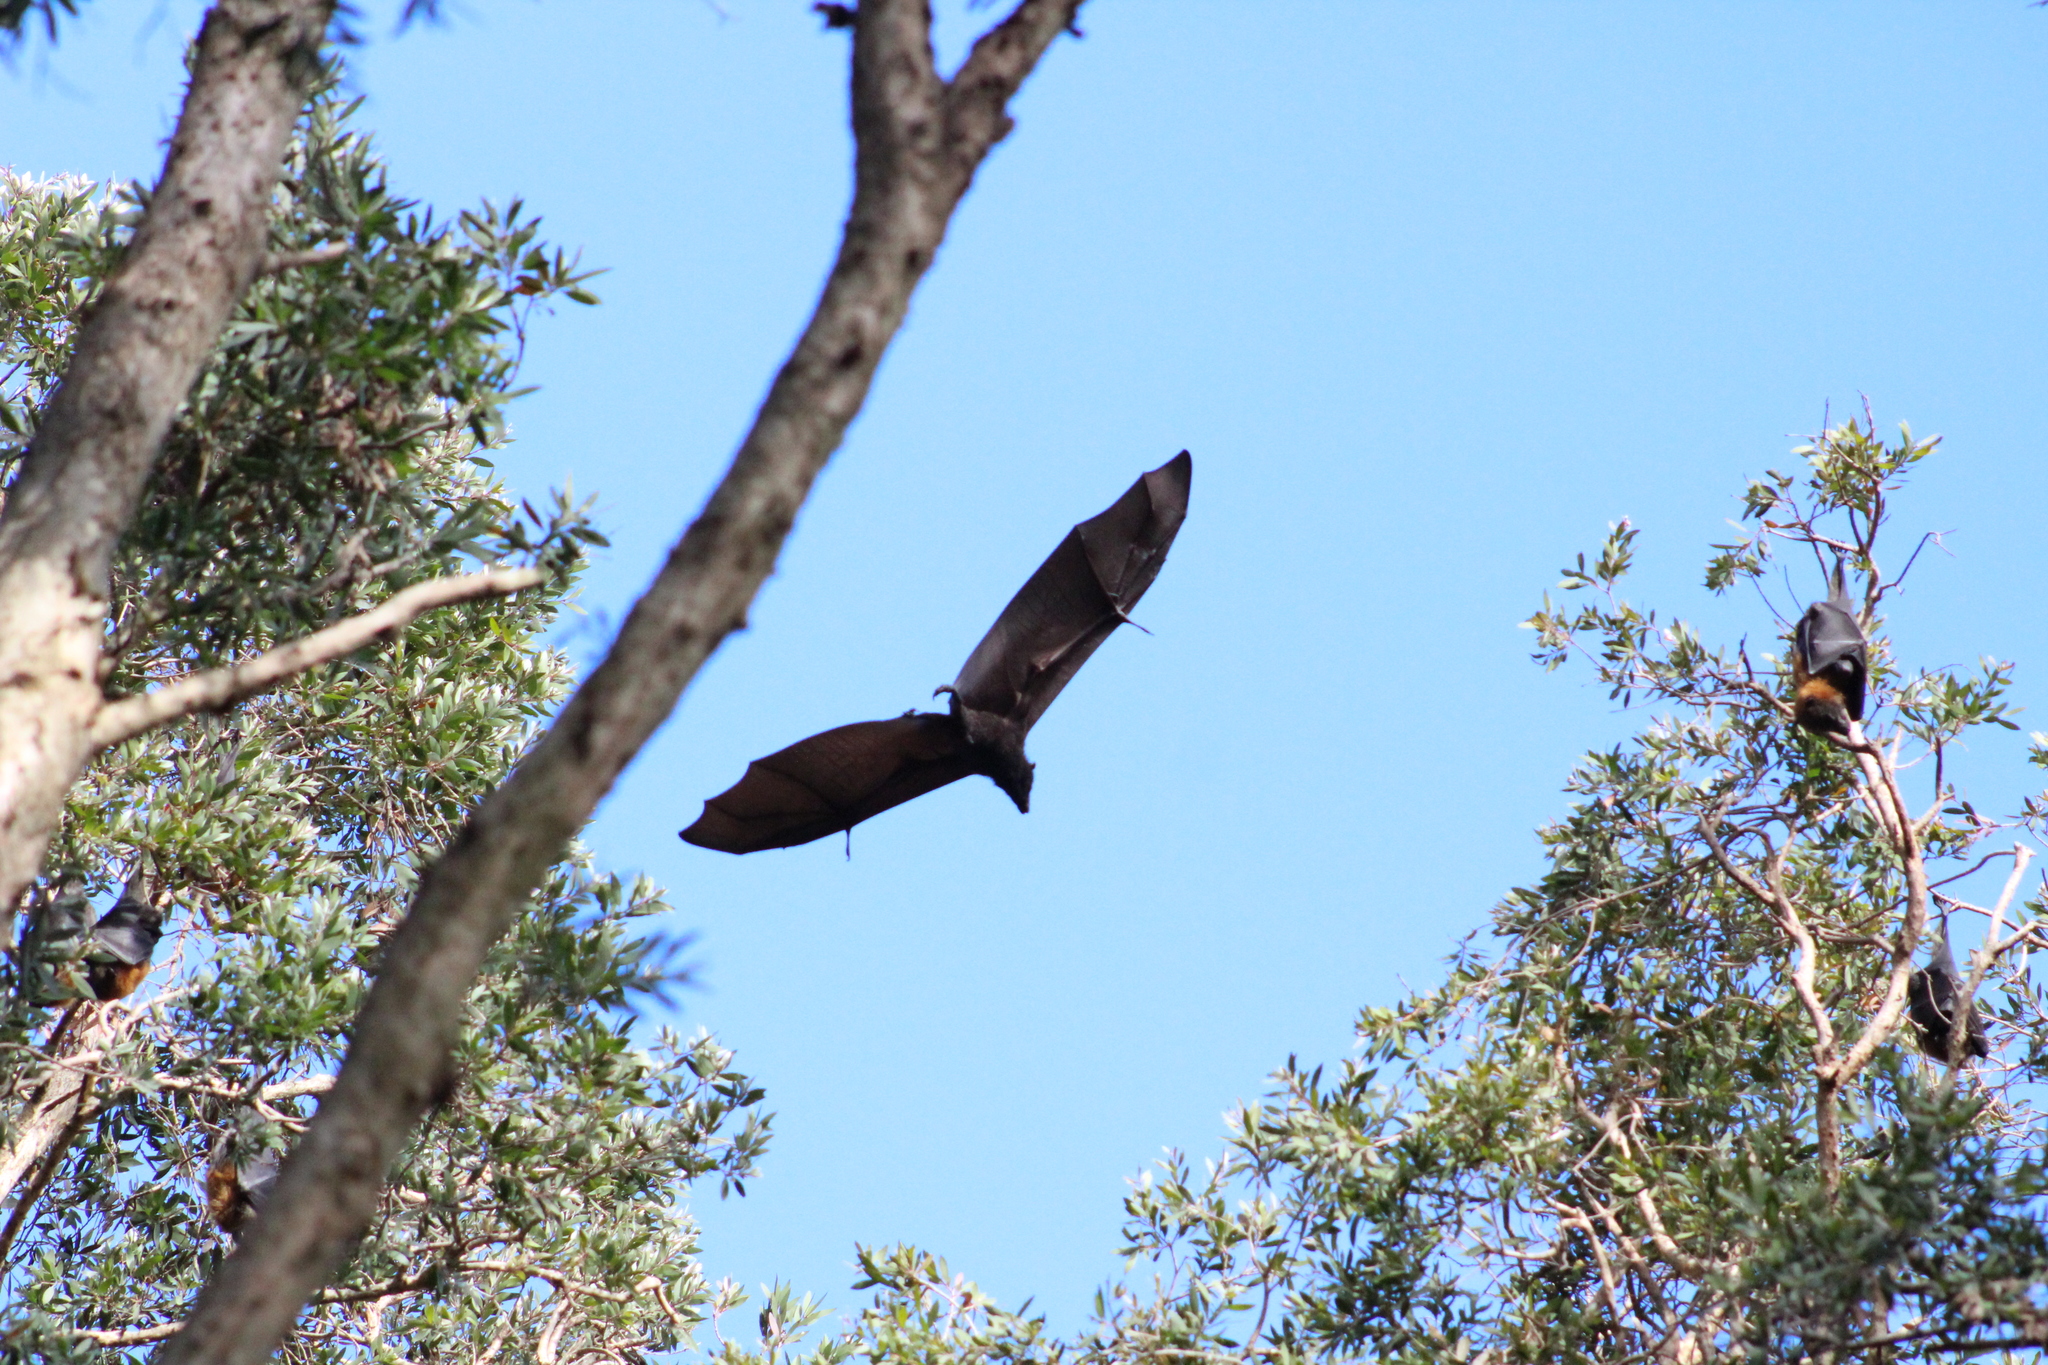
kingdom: Animalia
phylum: Chordata
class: Mammalia
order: Chiroptera
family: Pteropodidae
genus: Pteropus
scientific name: Pteropus alecto
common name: Black flying fox
